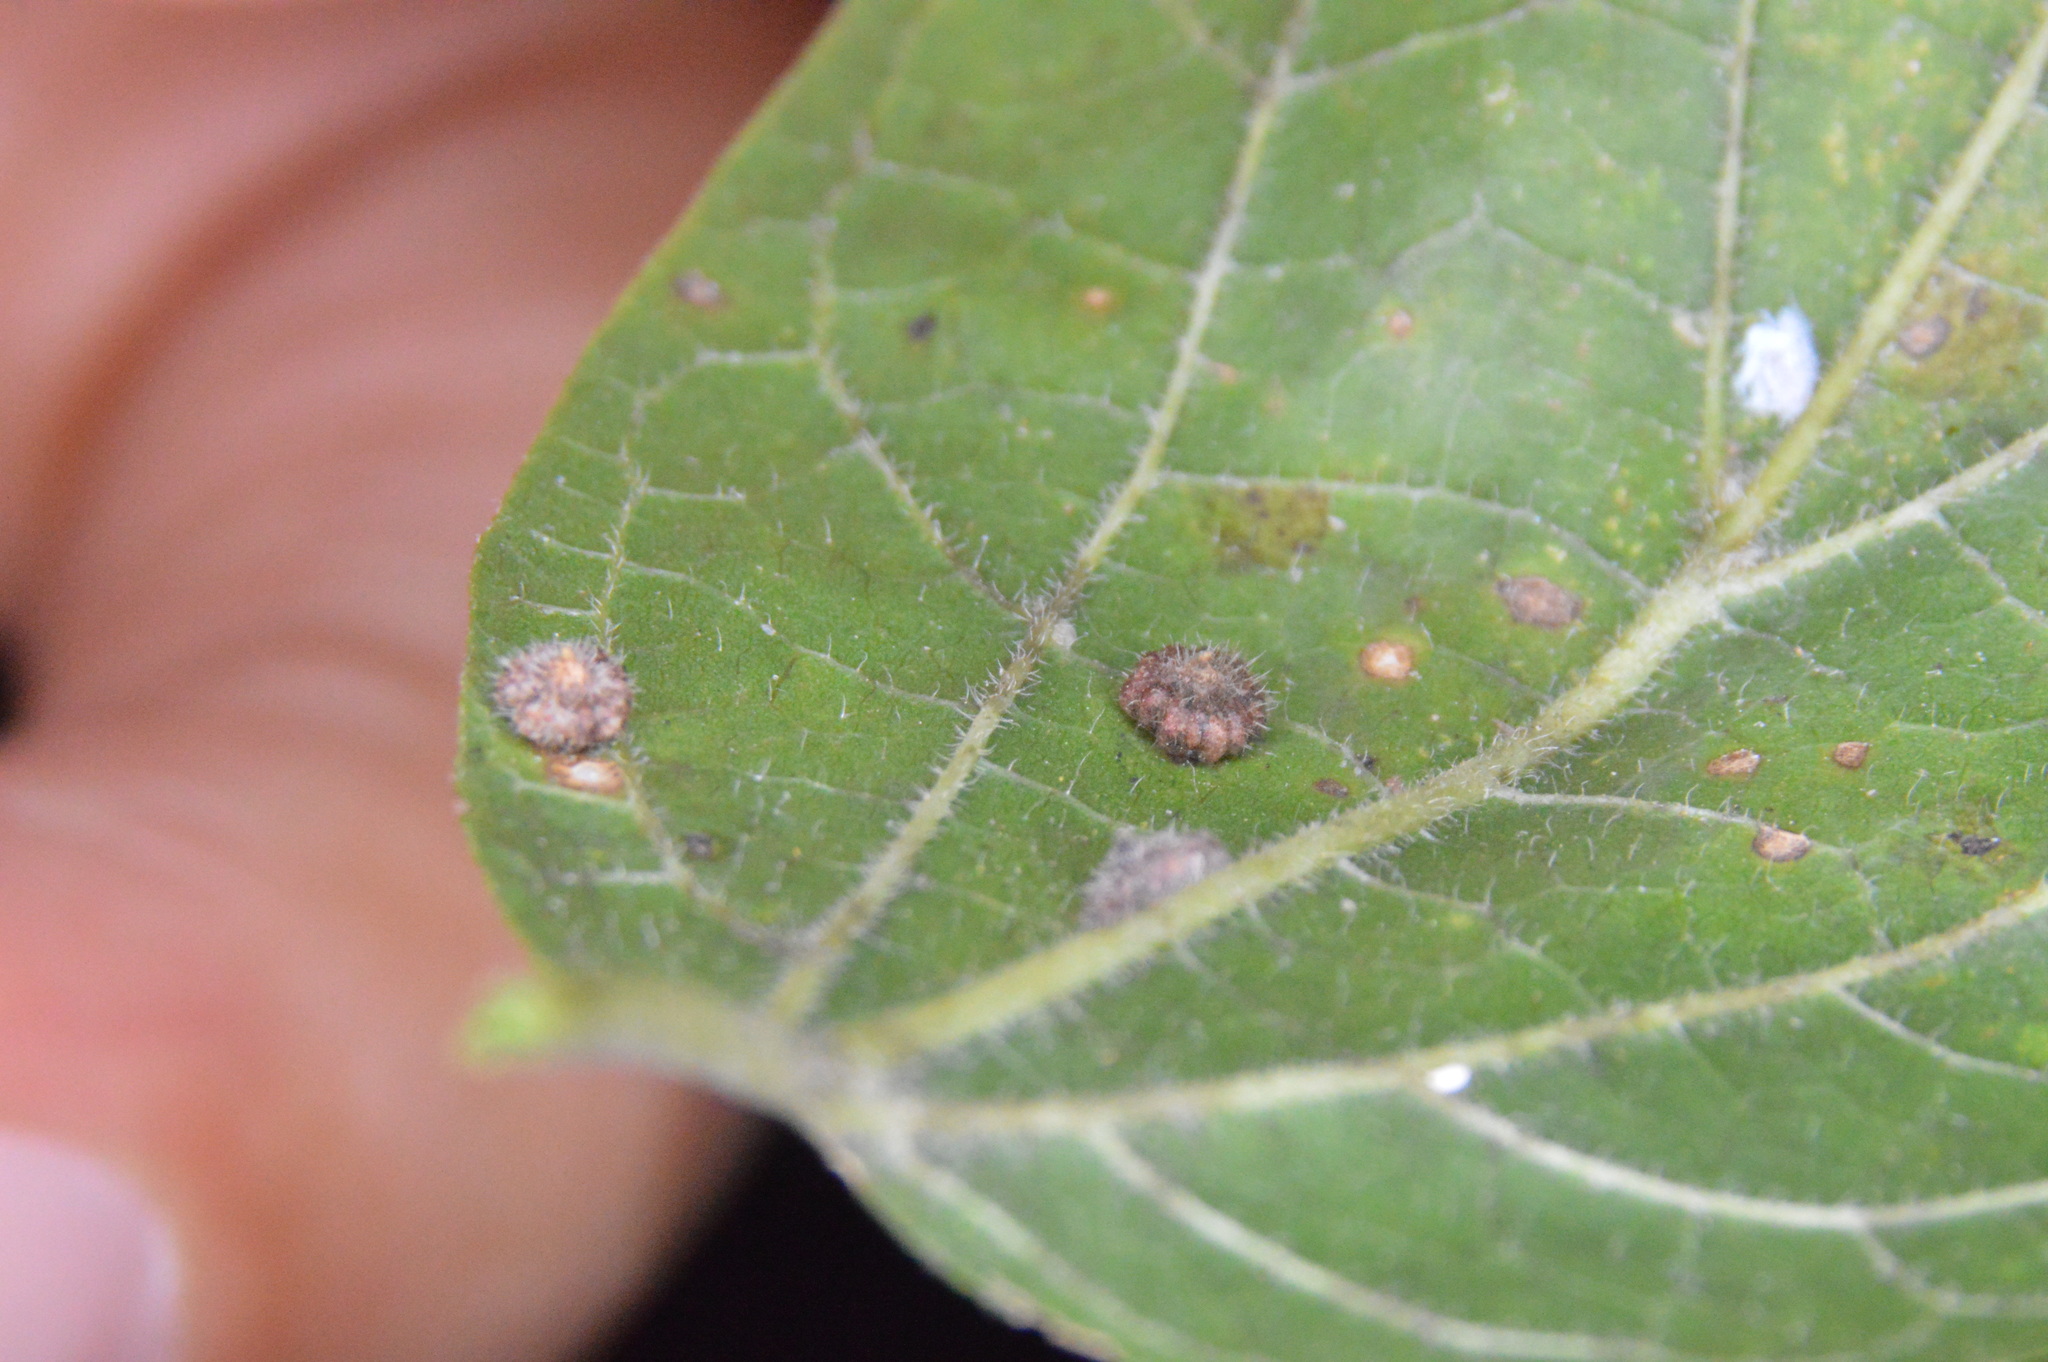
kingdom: Animalia
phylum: Arthropoda
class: Insecta
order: Diptera
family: Cecidomyiidae
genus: Celticecis
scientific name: Celticecis capsularis
